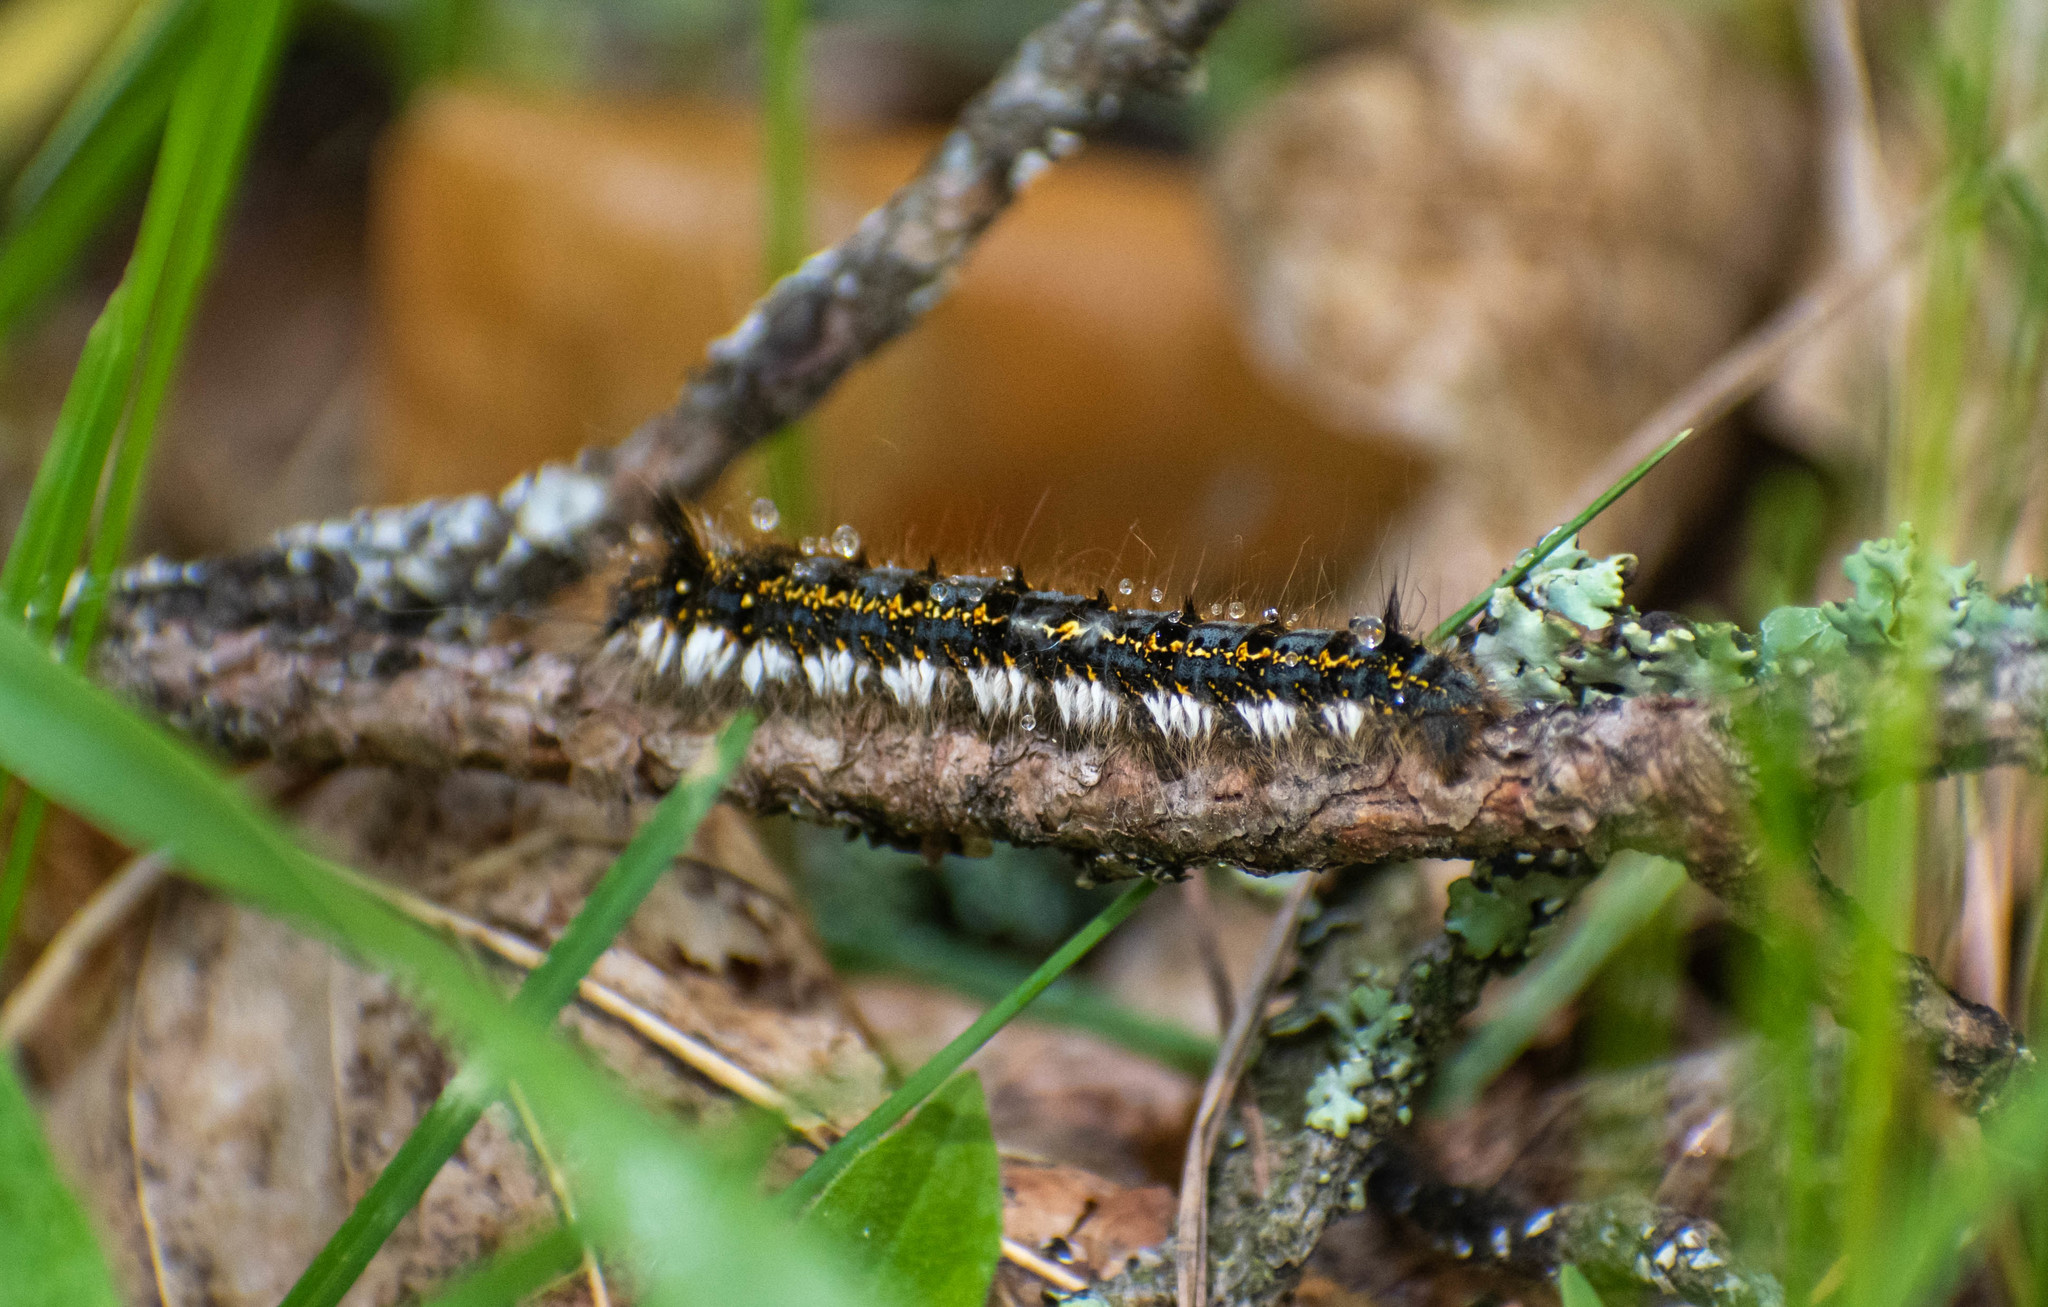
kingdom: Animalia
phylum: Arthropoda
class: Insecta
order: Lepidoptera
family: Lasiocampidae
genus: Euthrix
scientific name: Euthrix potatoria
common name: Drinker
